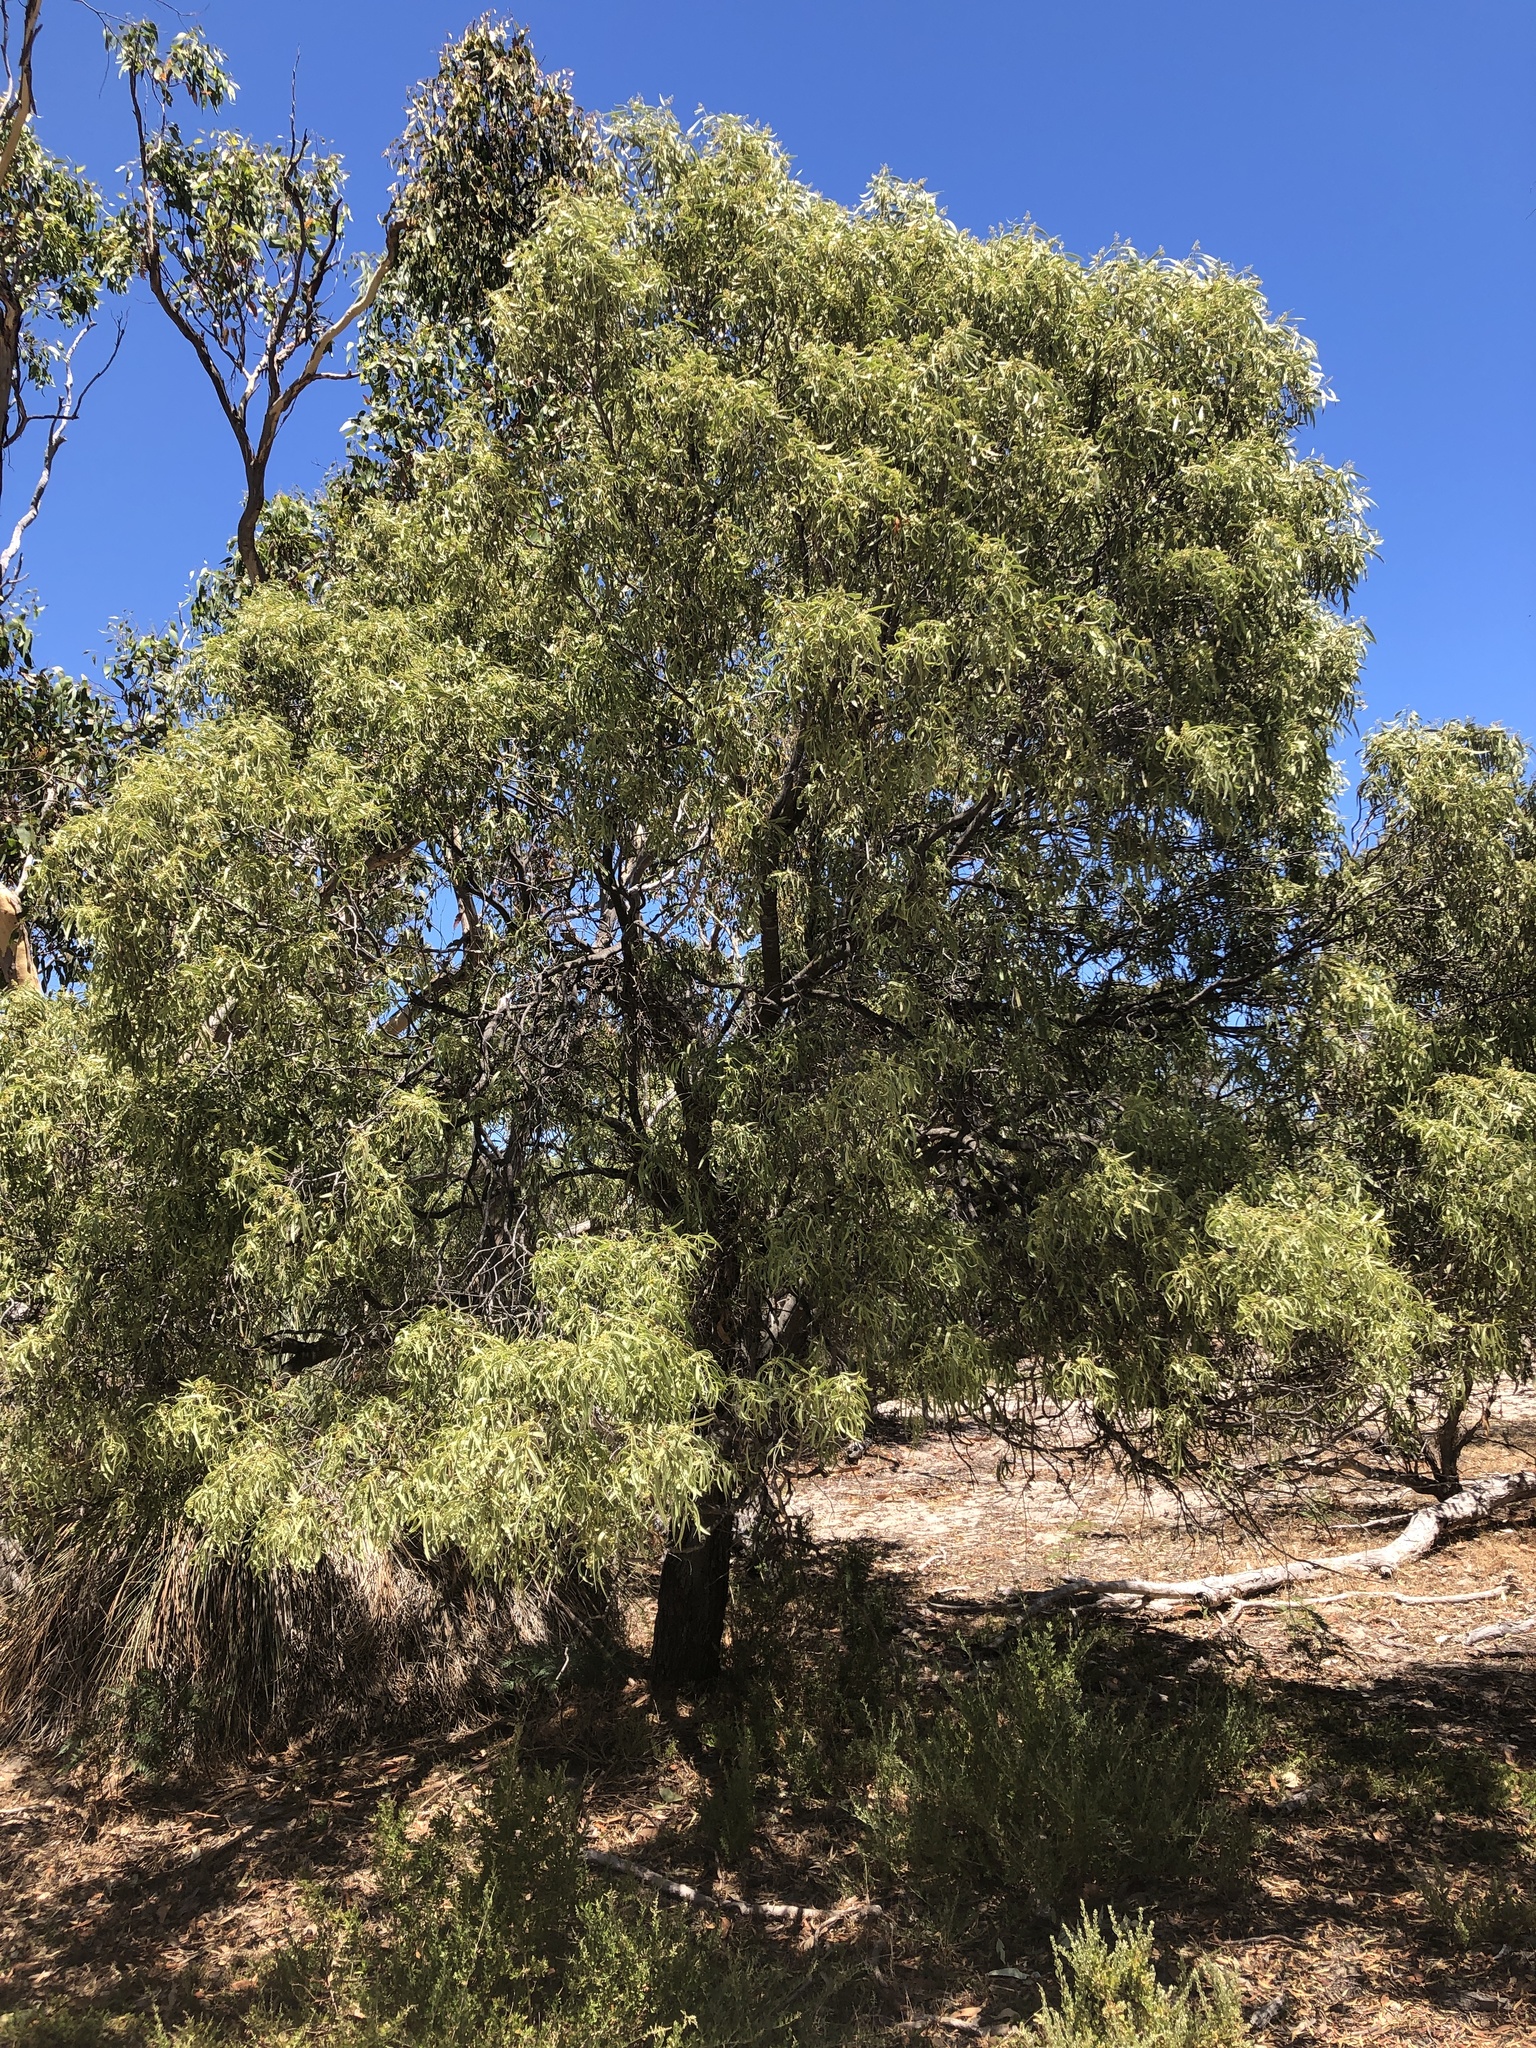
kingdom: Plantae
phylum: Tracheophyta
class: Magnoliopsida
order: Santalales
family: Santalaceae
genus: Santalum
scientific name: Santalum acuminatum
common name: Sweet quandong
